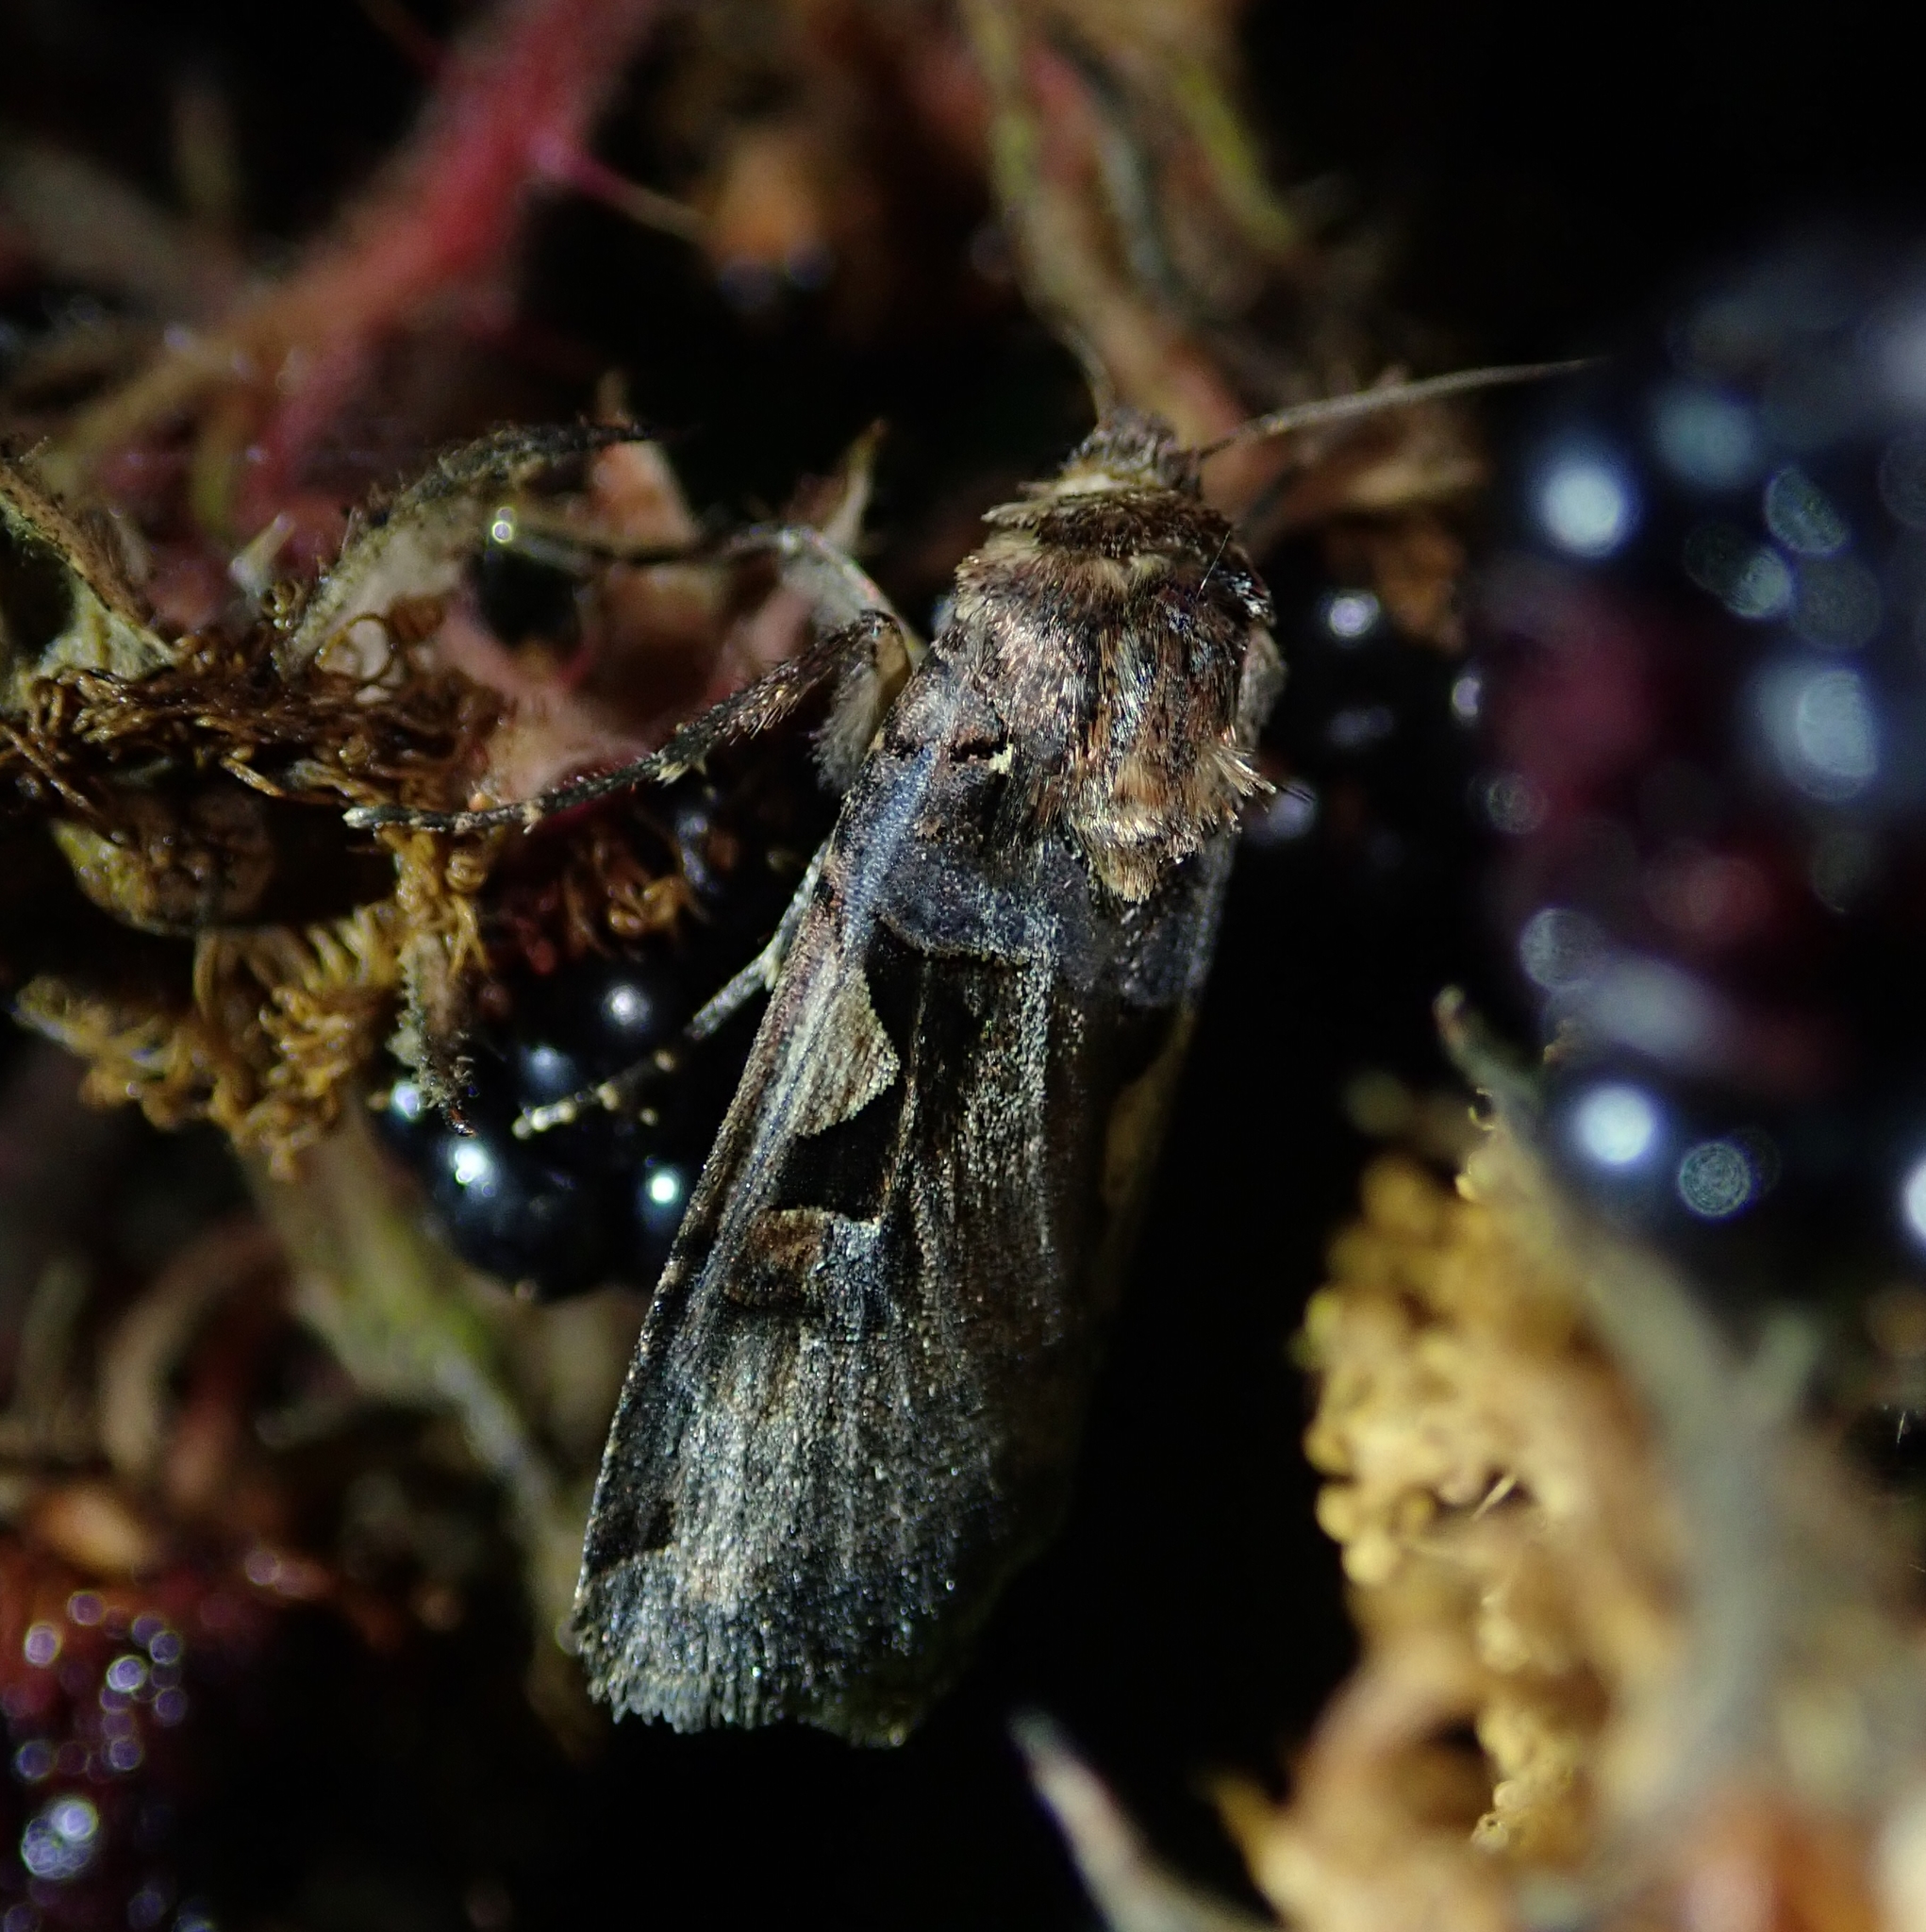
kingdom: Animalia
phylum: Arthropoda
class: Insecta
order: Lepidoptera
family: Noctuidae
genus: Xestia
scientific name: Xestia c-nigrum
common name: Setaceous hebrew character
